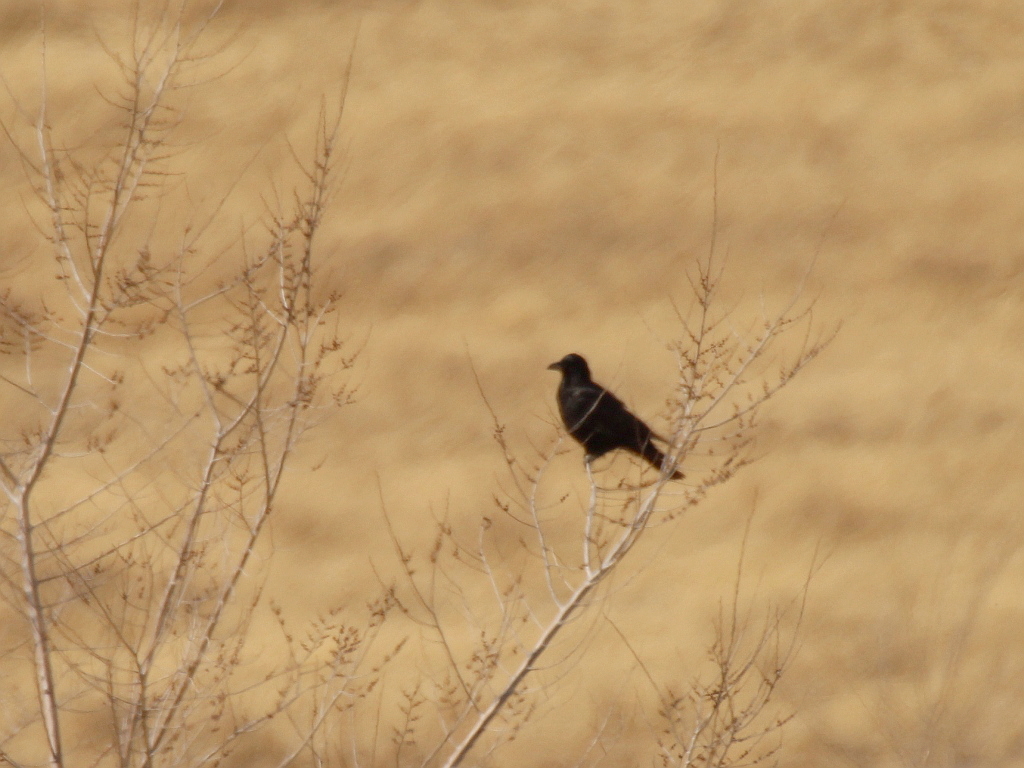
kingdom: Animalia
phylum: Chordata
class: Aves
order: Passeriformes
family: Corvidae
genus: Corvus
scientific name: Corvus corone
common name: Carrion crow
